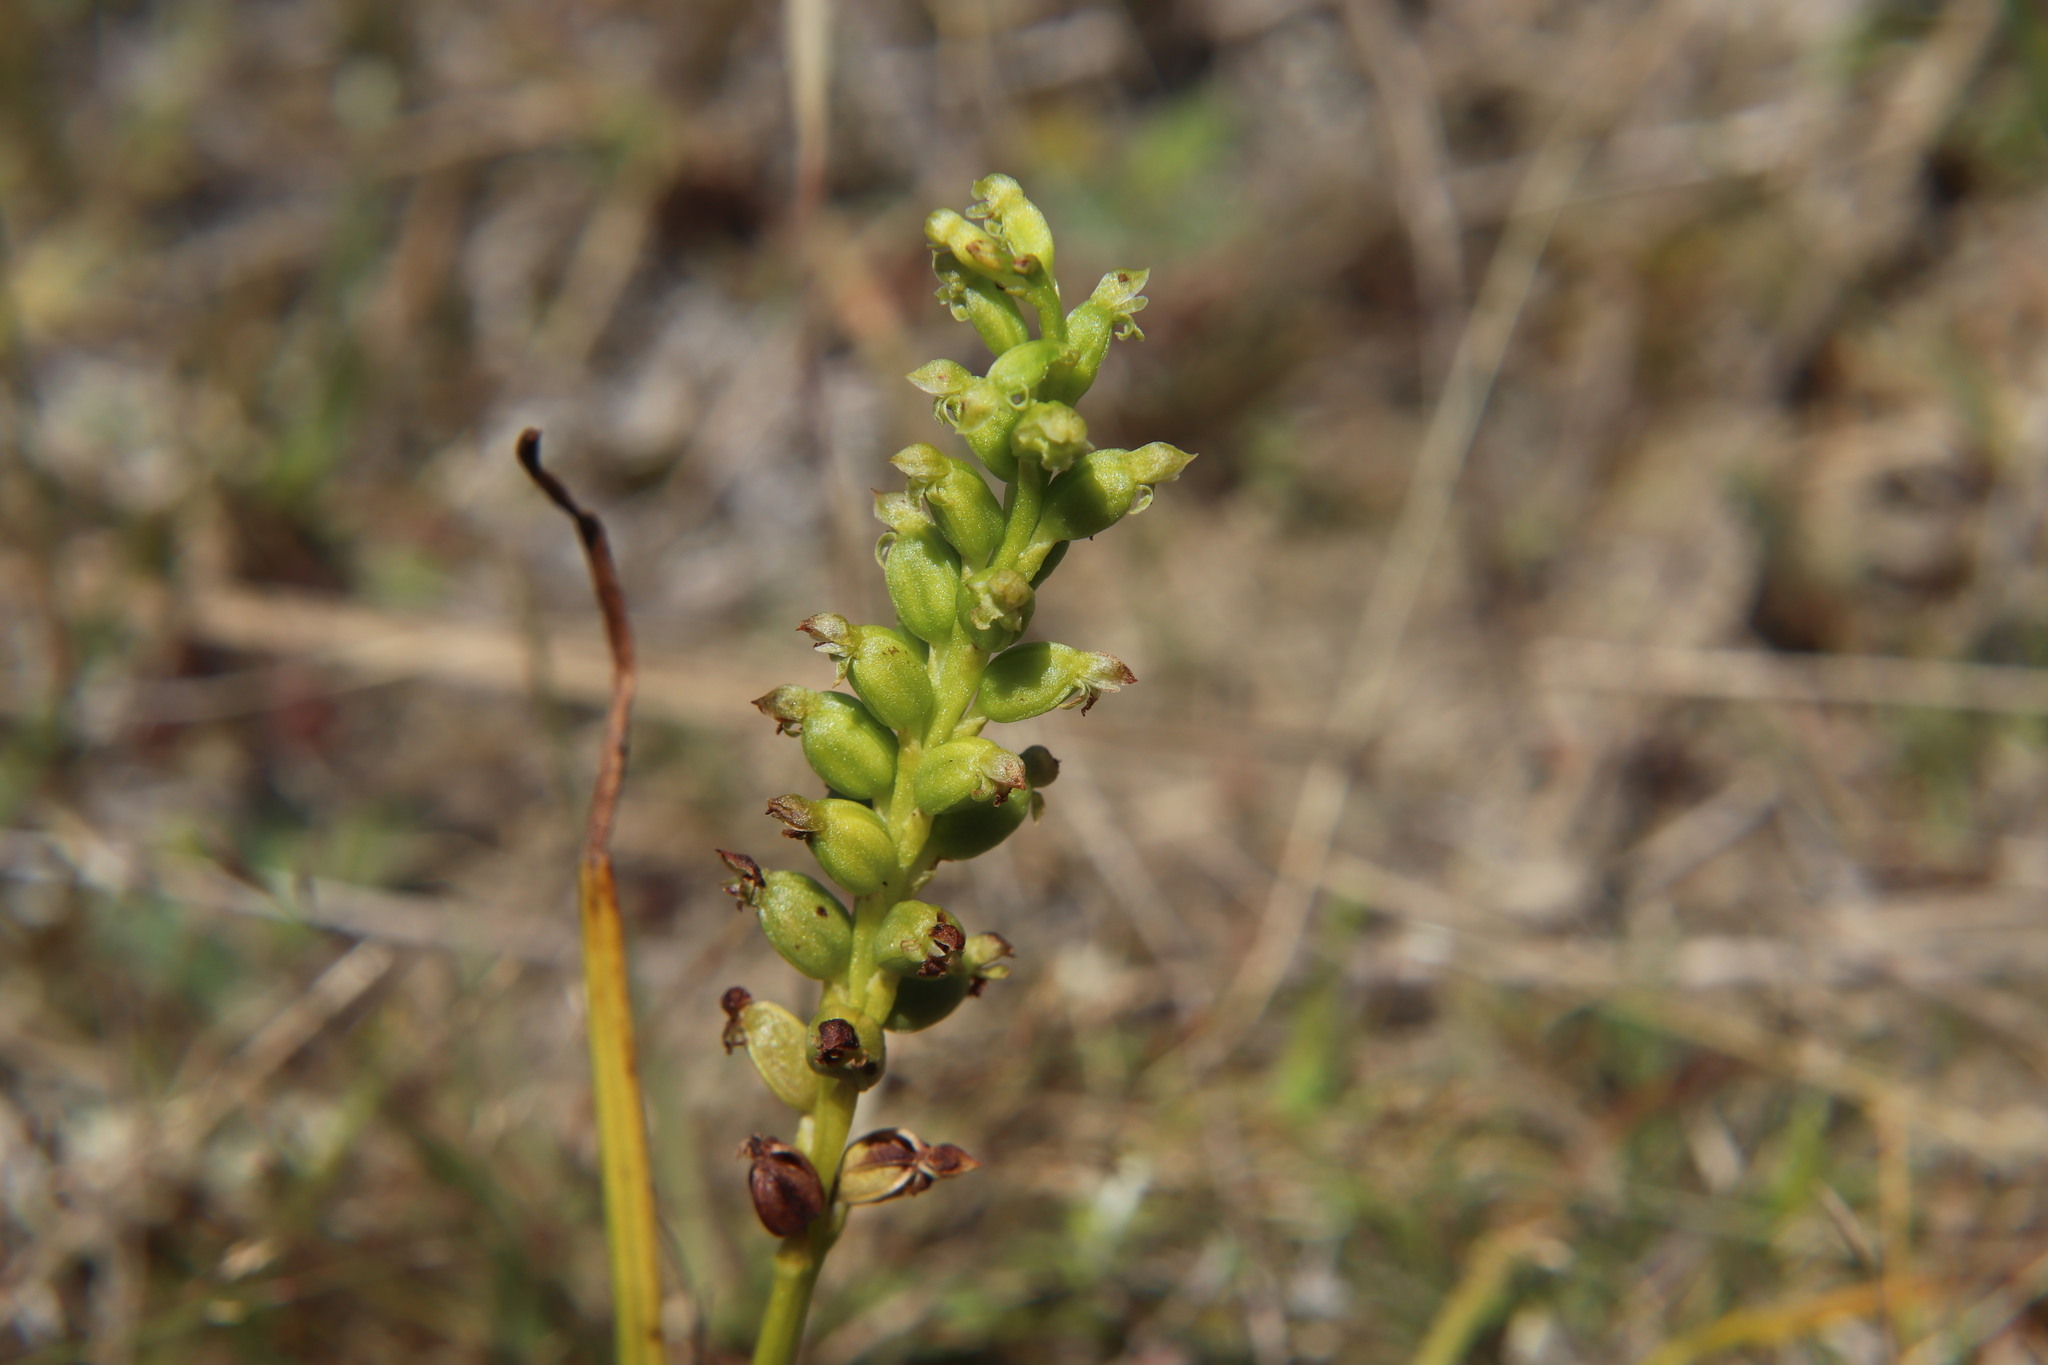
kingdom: Plantae
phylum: Tracheophyta
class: Liliopsida
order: Asparagales
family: Orchidaceae
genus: Microtis
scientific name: Microtis unifolia
